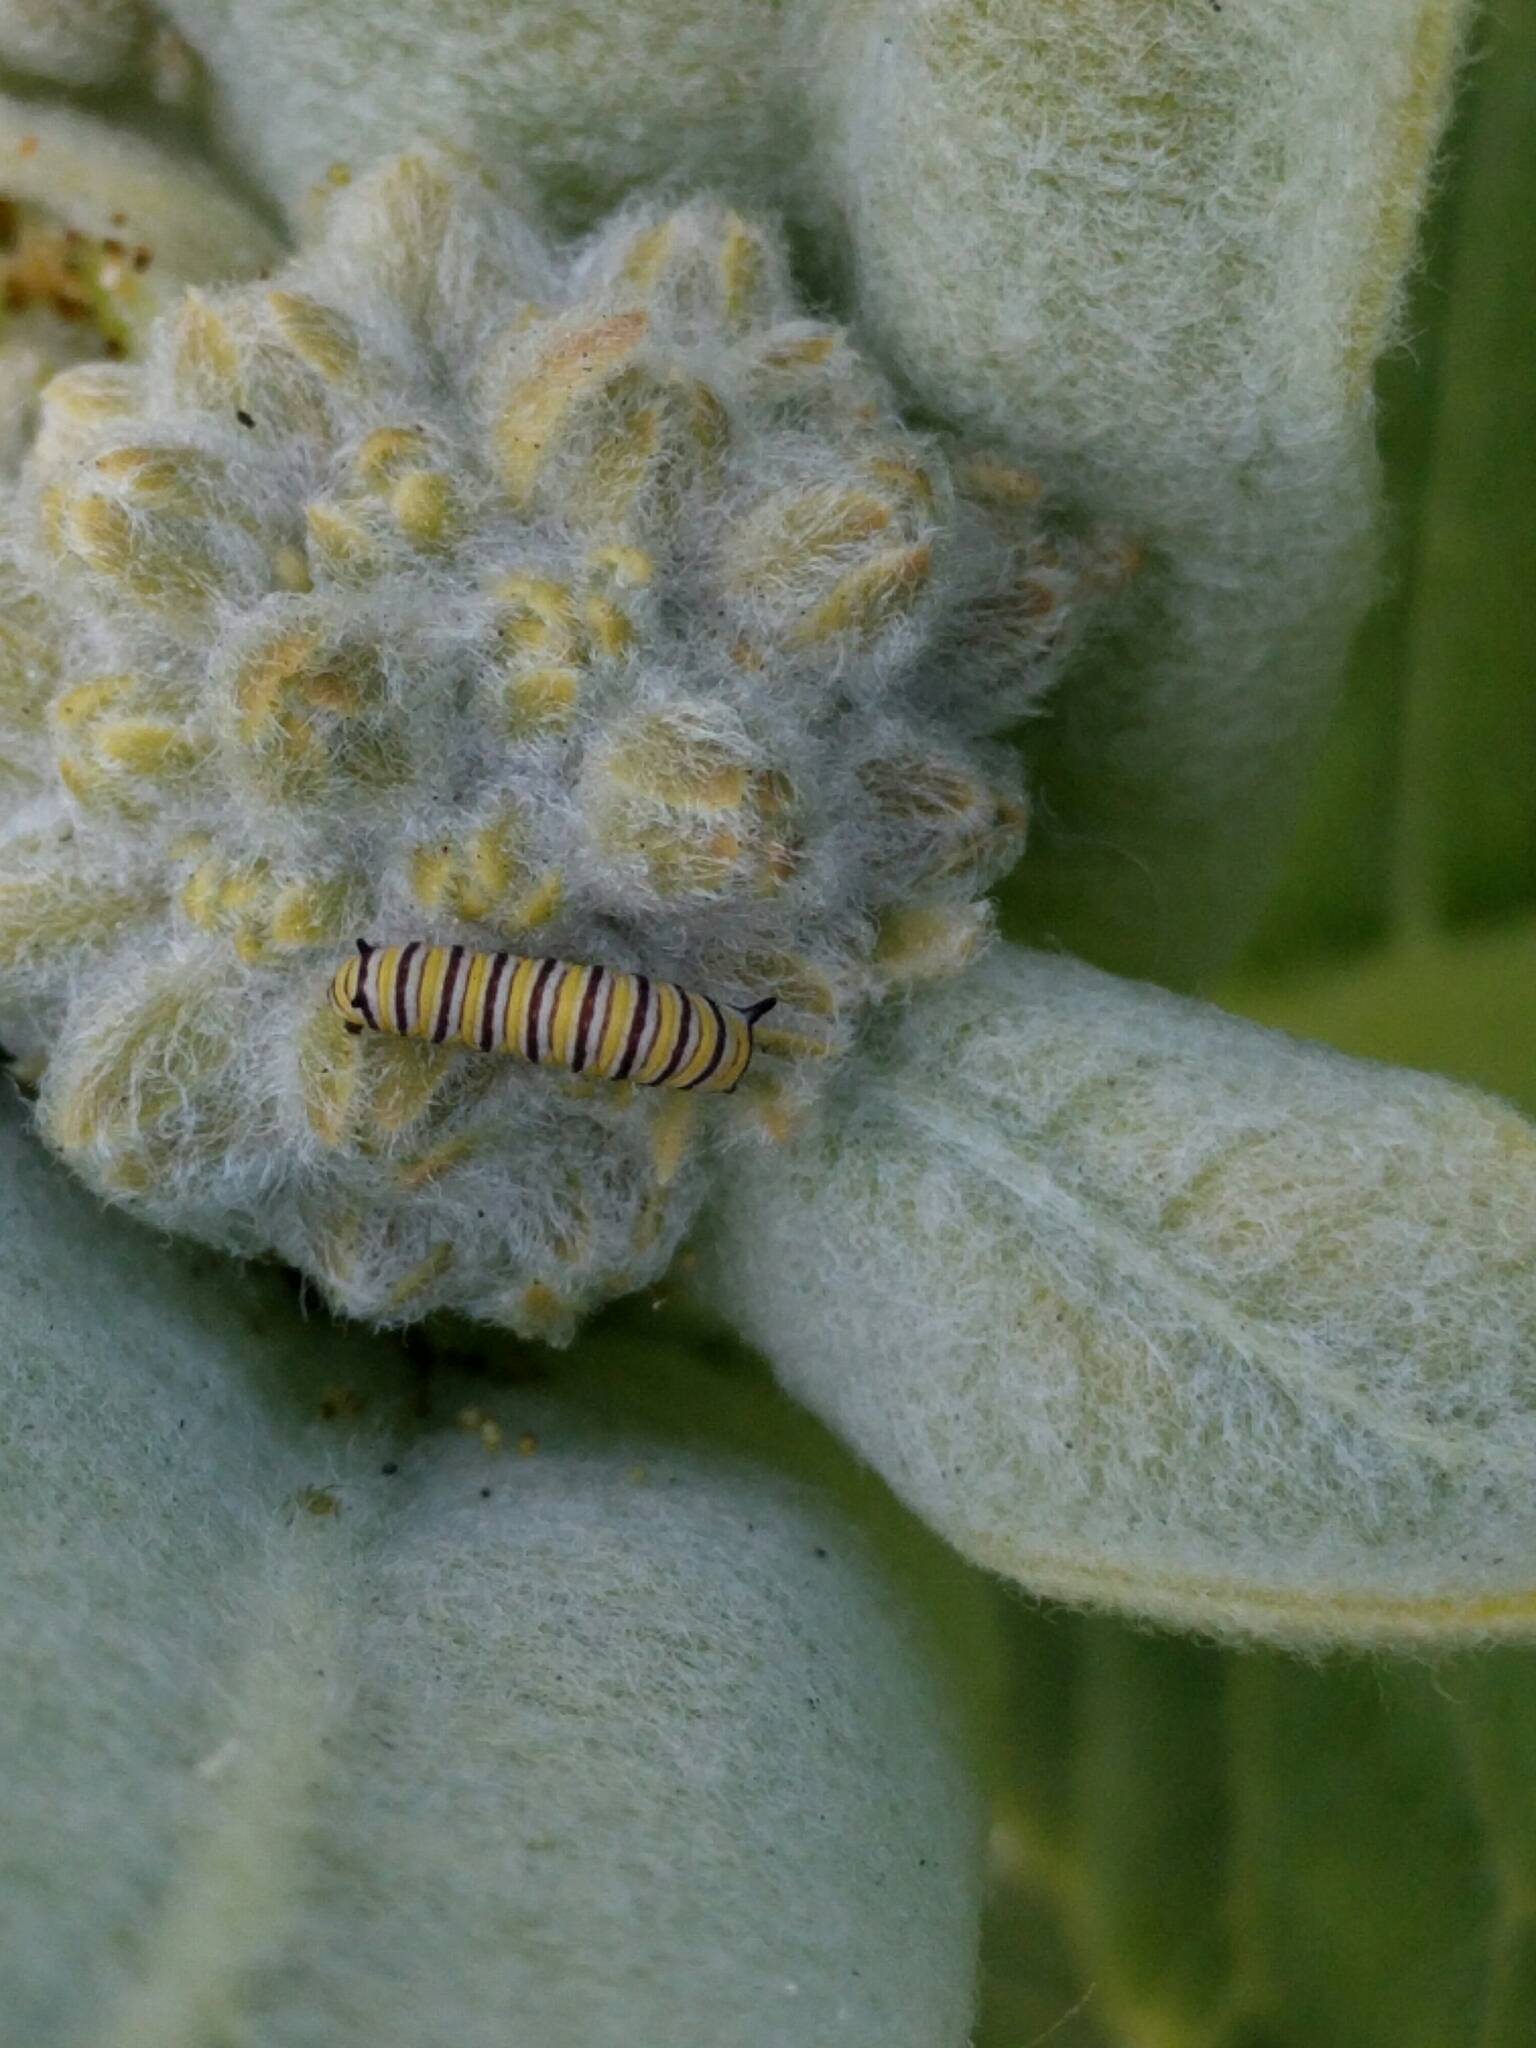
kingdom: Animalia
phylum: Arthropoda
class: Insecta
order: Lepidoptera
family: Nymphalidae
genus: Danaus
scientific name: Danaus plexippus
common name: Monarch
